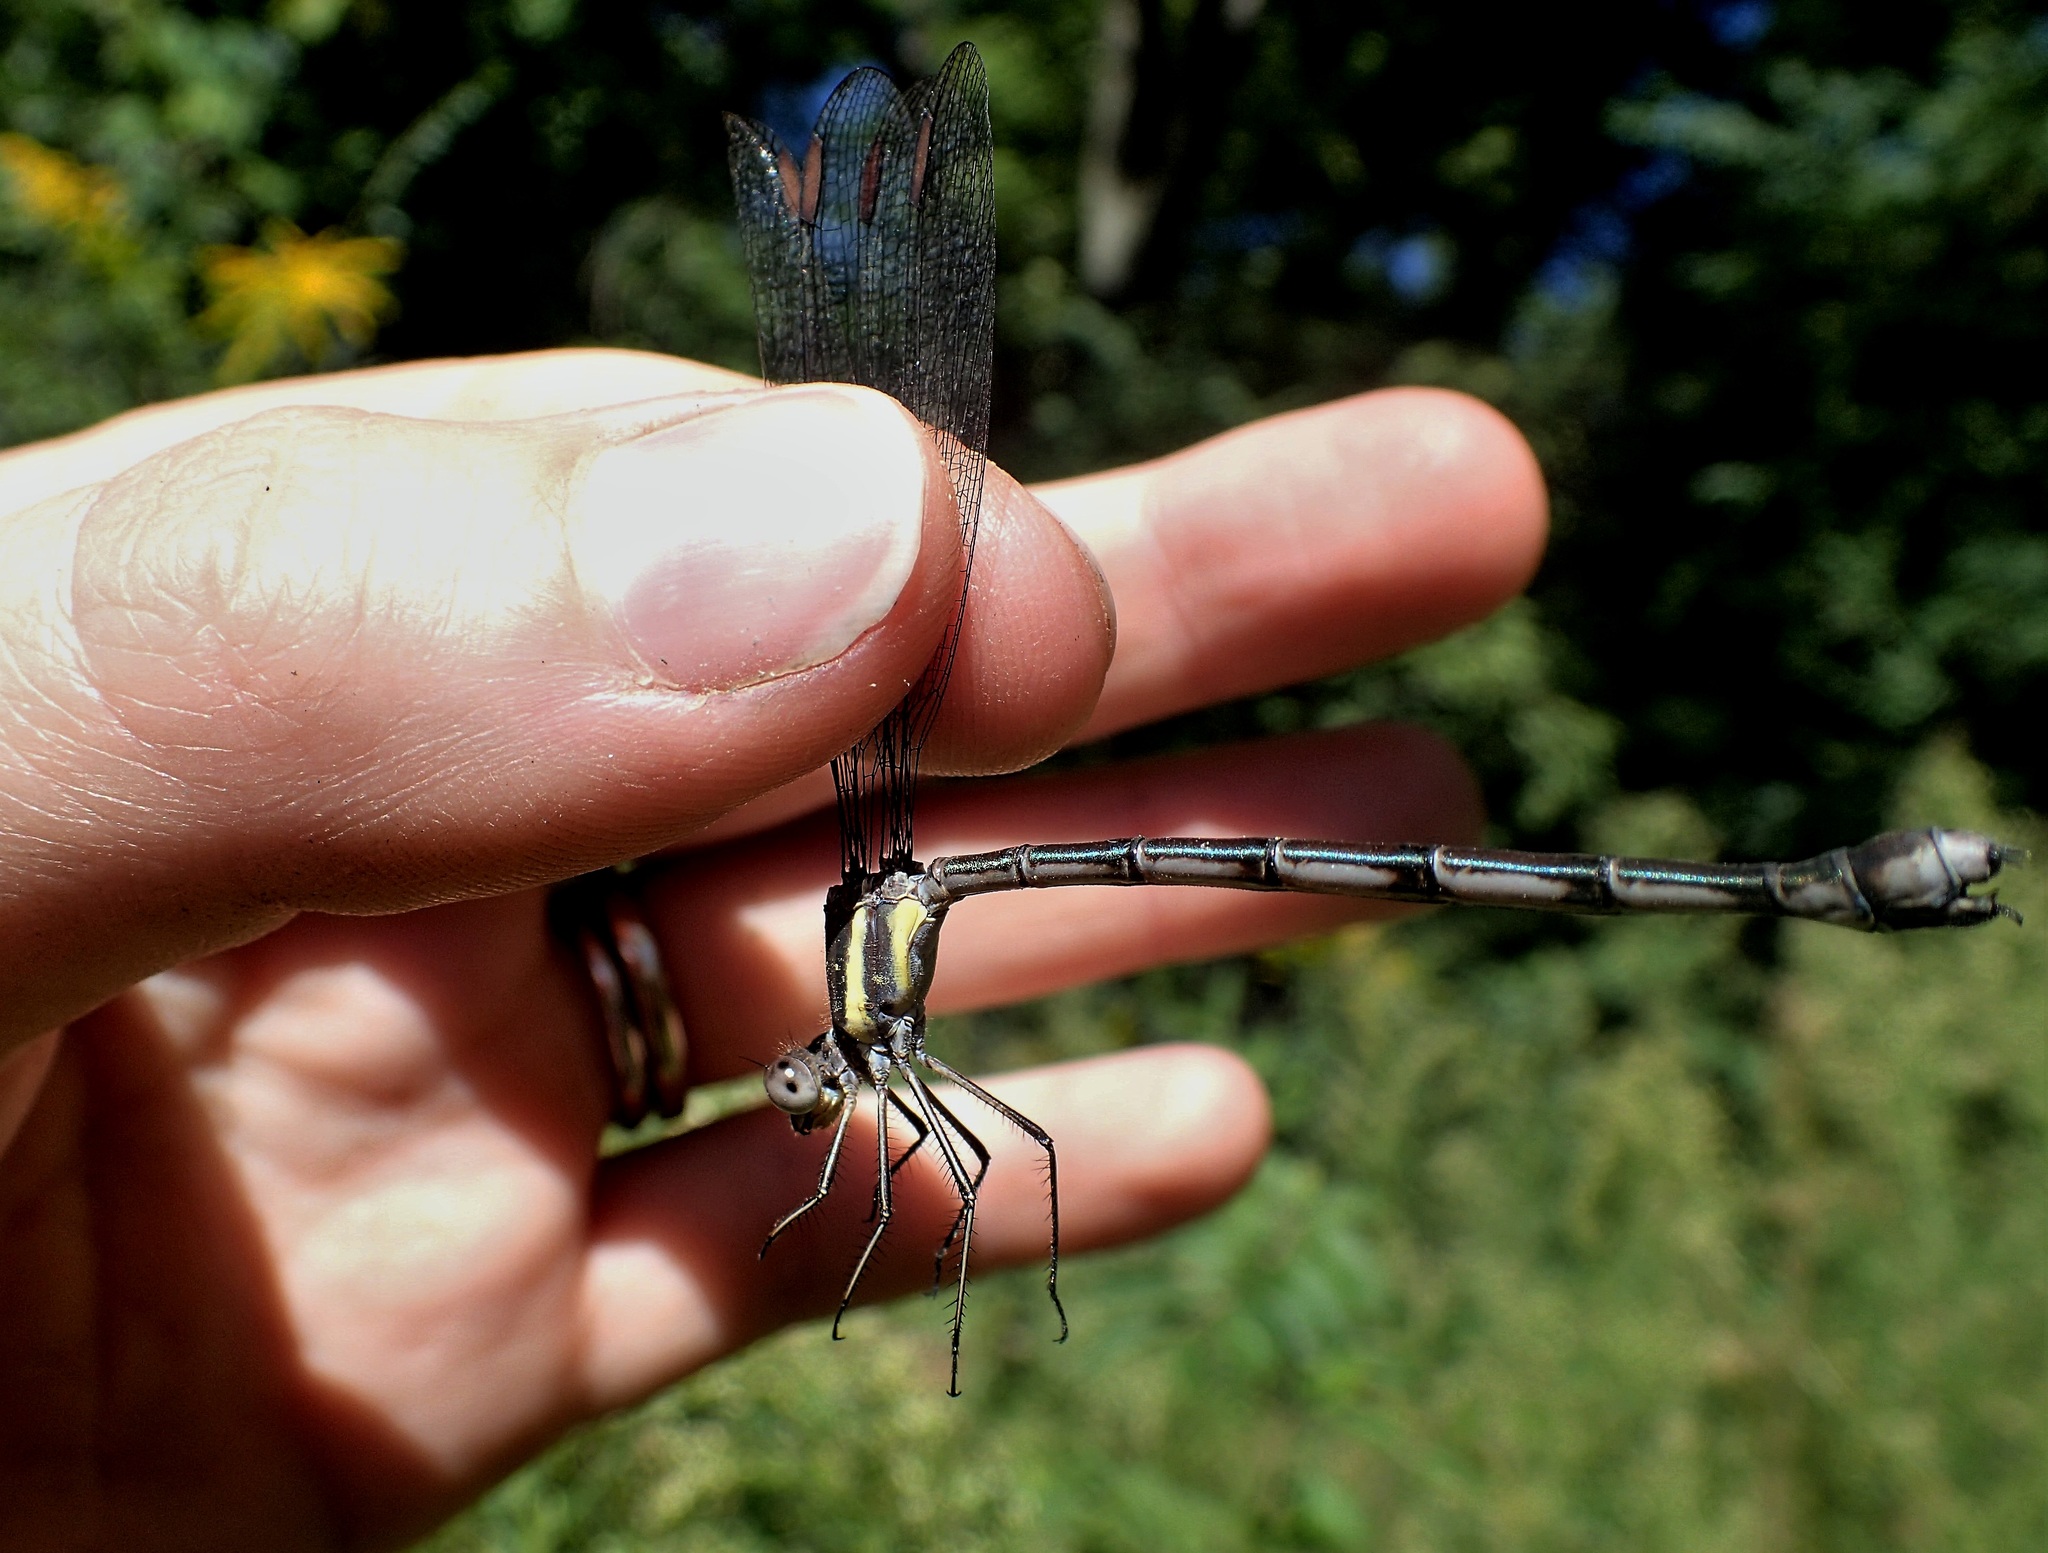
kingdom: Animalia
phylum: Arthropoda
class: Insecta
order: Odonata
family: Lestidae
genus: Archilestes
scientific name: Archilestes grandis
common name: Great spreadwing
